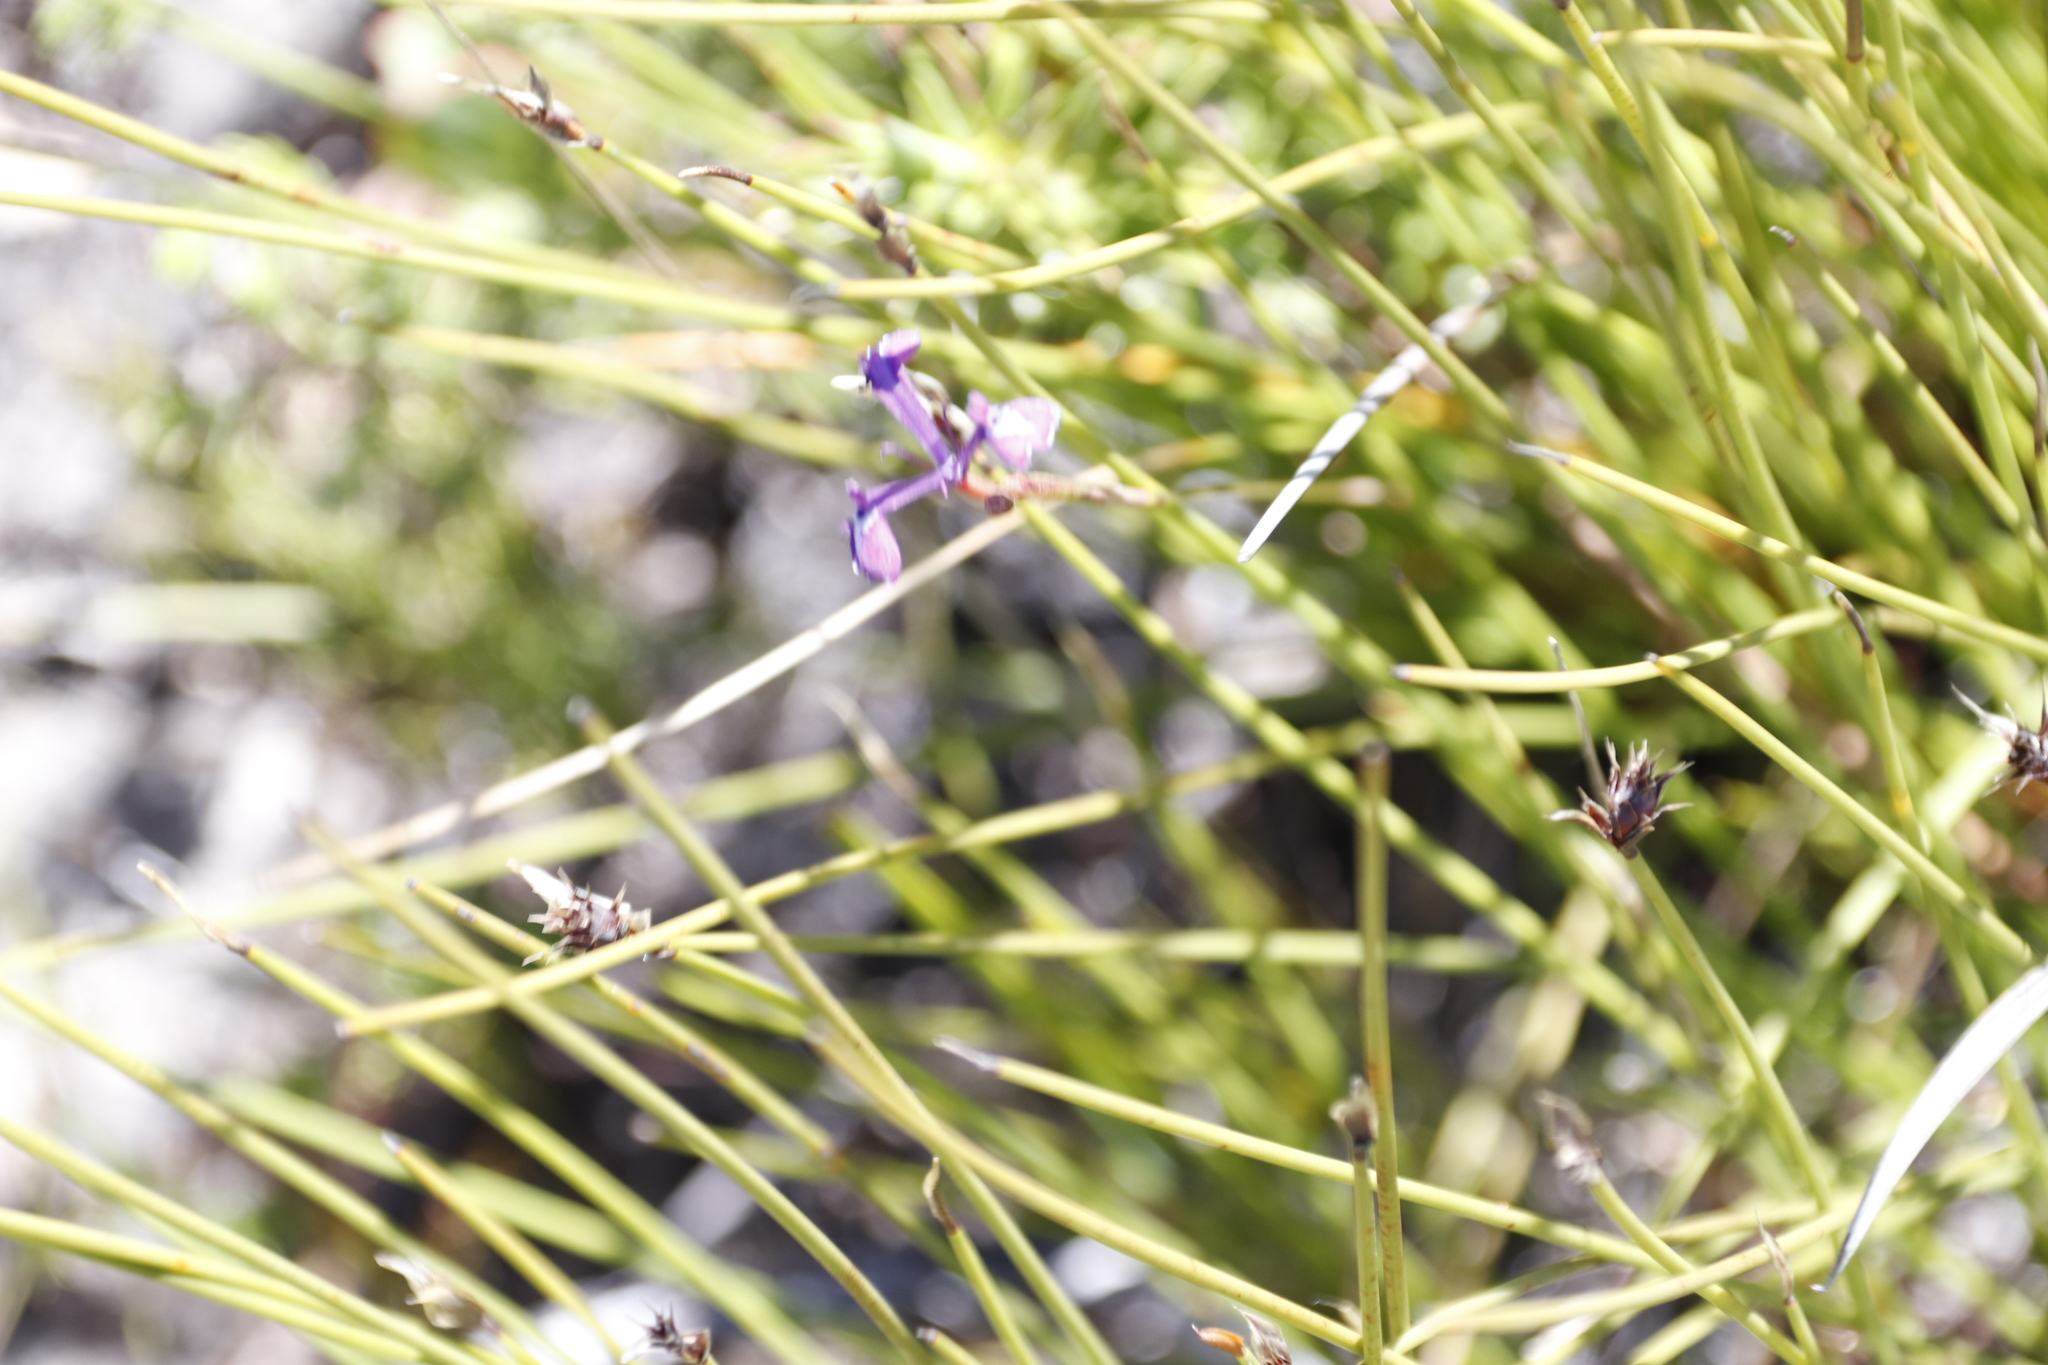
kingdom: Plantae
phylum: Tracheophyta
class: Liliopsida
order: Asparagales
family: Iridaceae
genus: Moraea
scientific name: Moraea tripetala
